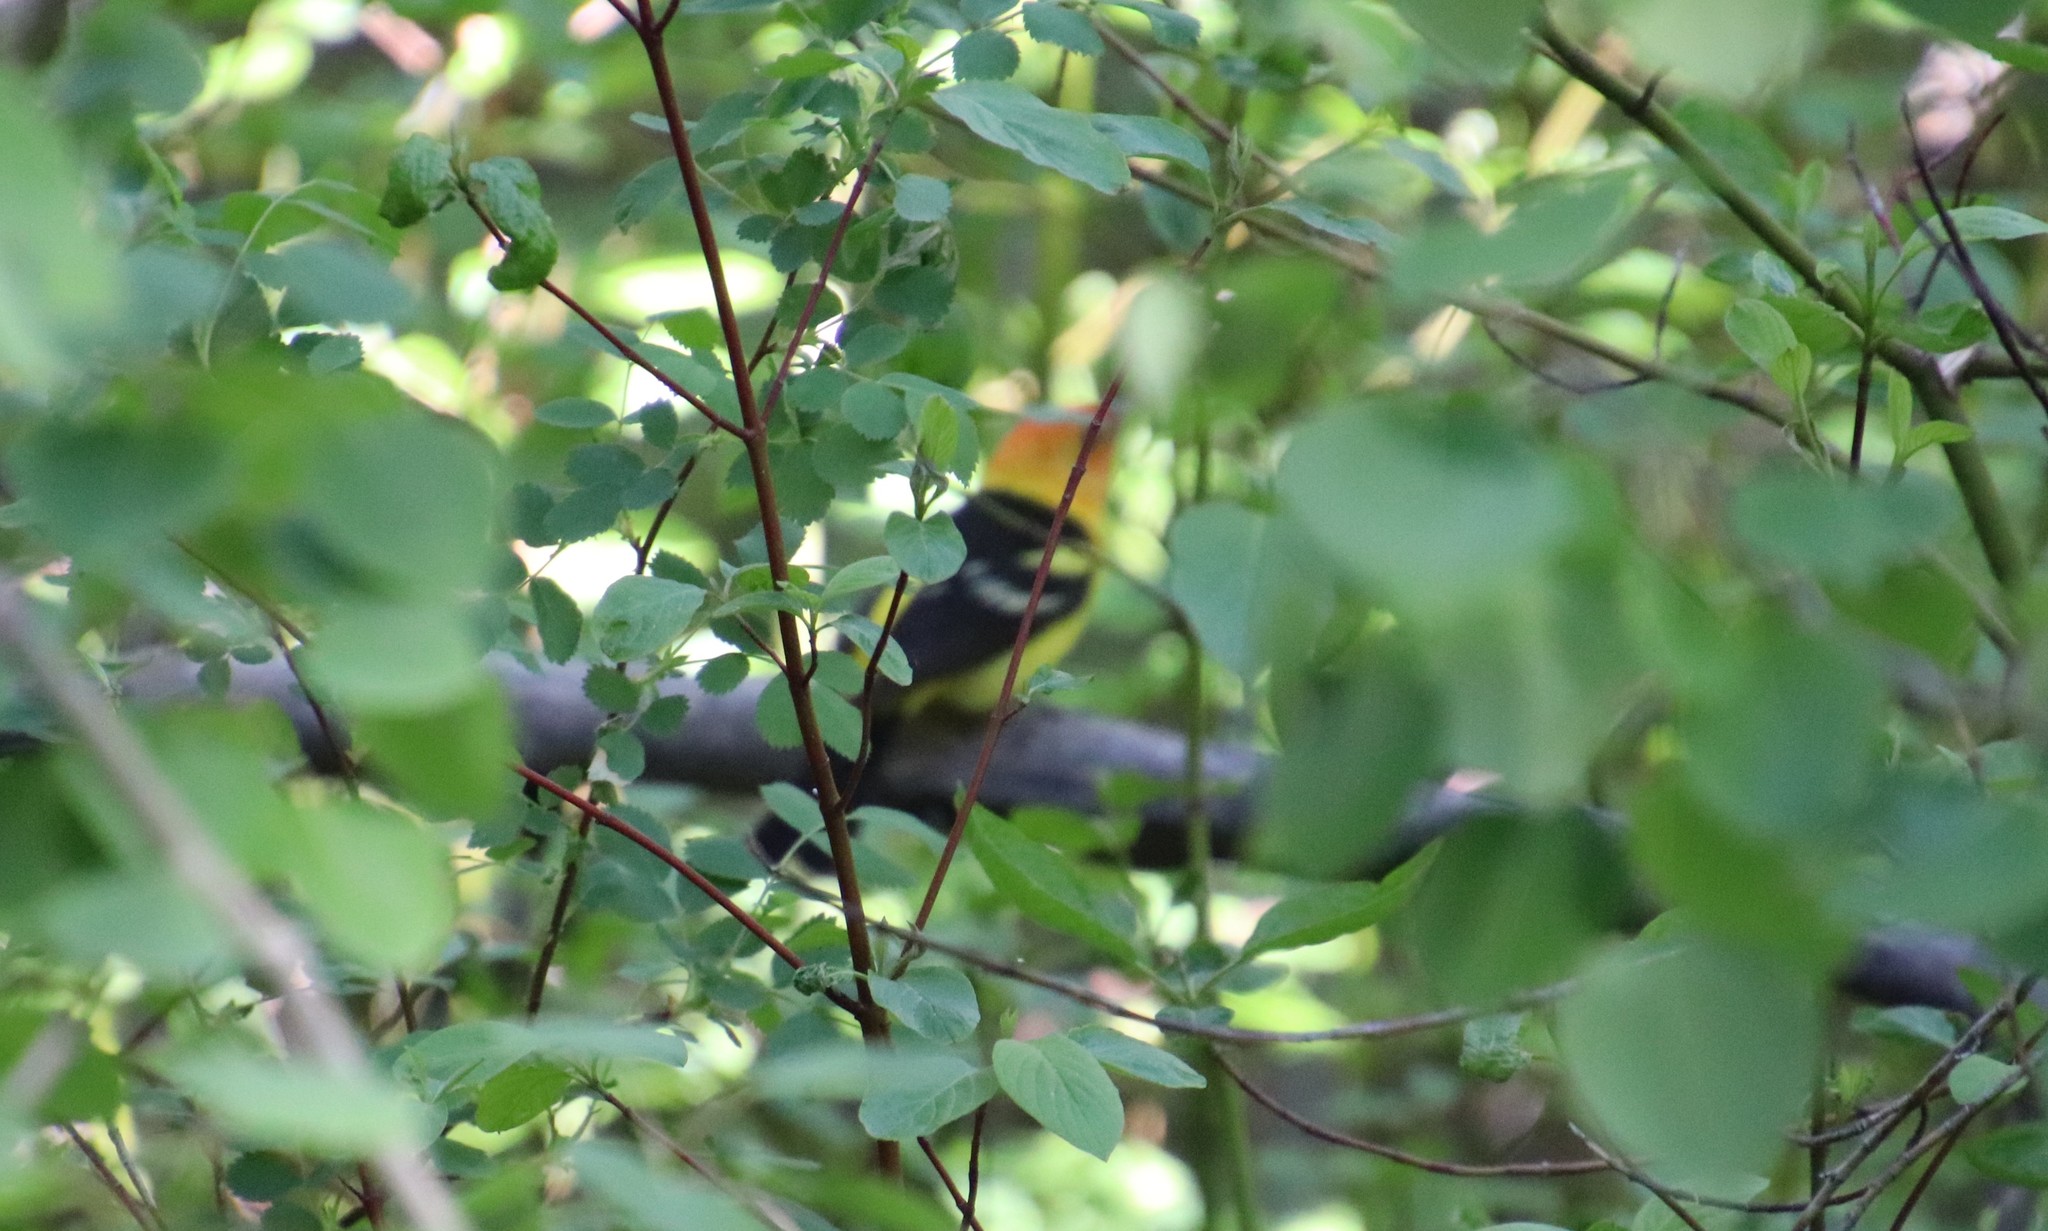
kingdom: Animalia
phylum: Chordata
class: Aves
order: Passeriformes
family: Cardinalidae
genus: Piranga
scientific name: Piranga ludoviciana
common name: Western tanager
